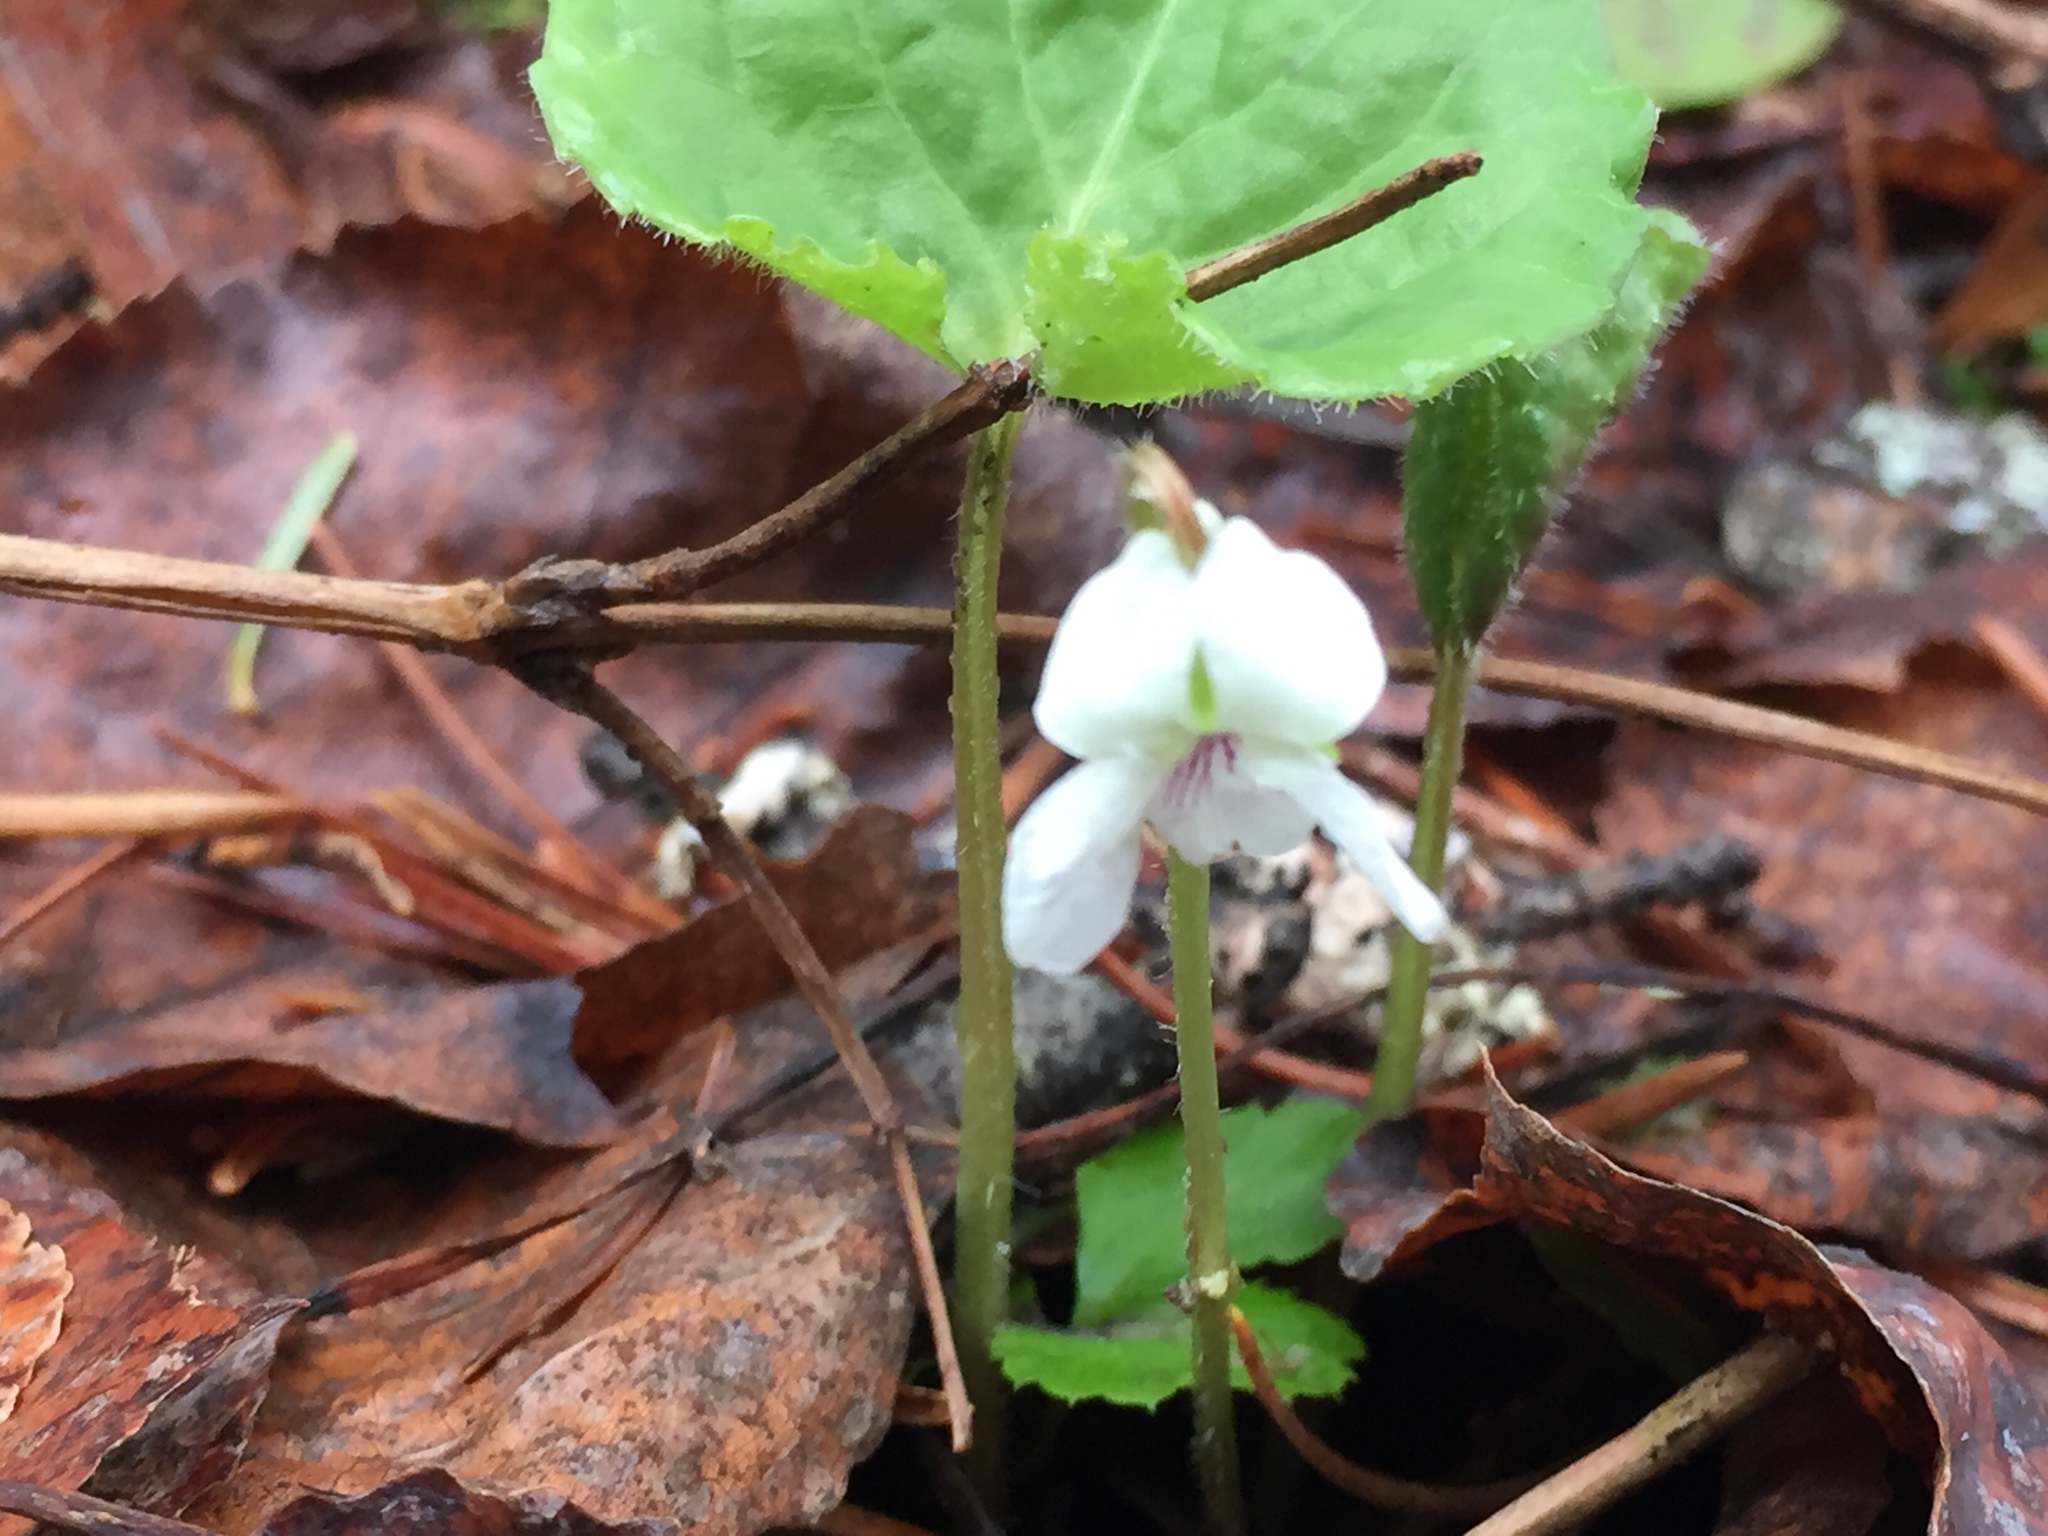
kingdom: Plantae
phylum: Tracheophyta
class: Magnoliopsida
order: Malpighiales
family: Violaceae
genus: Viola
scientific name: Viola renifolia
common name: Kidney-leaf violet
